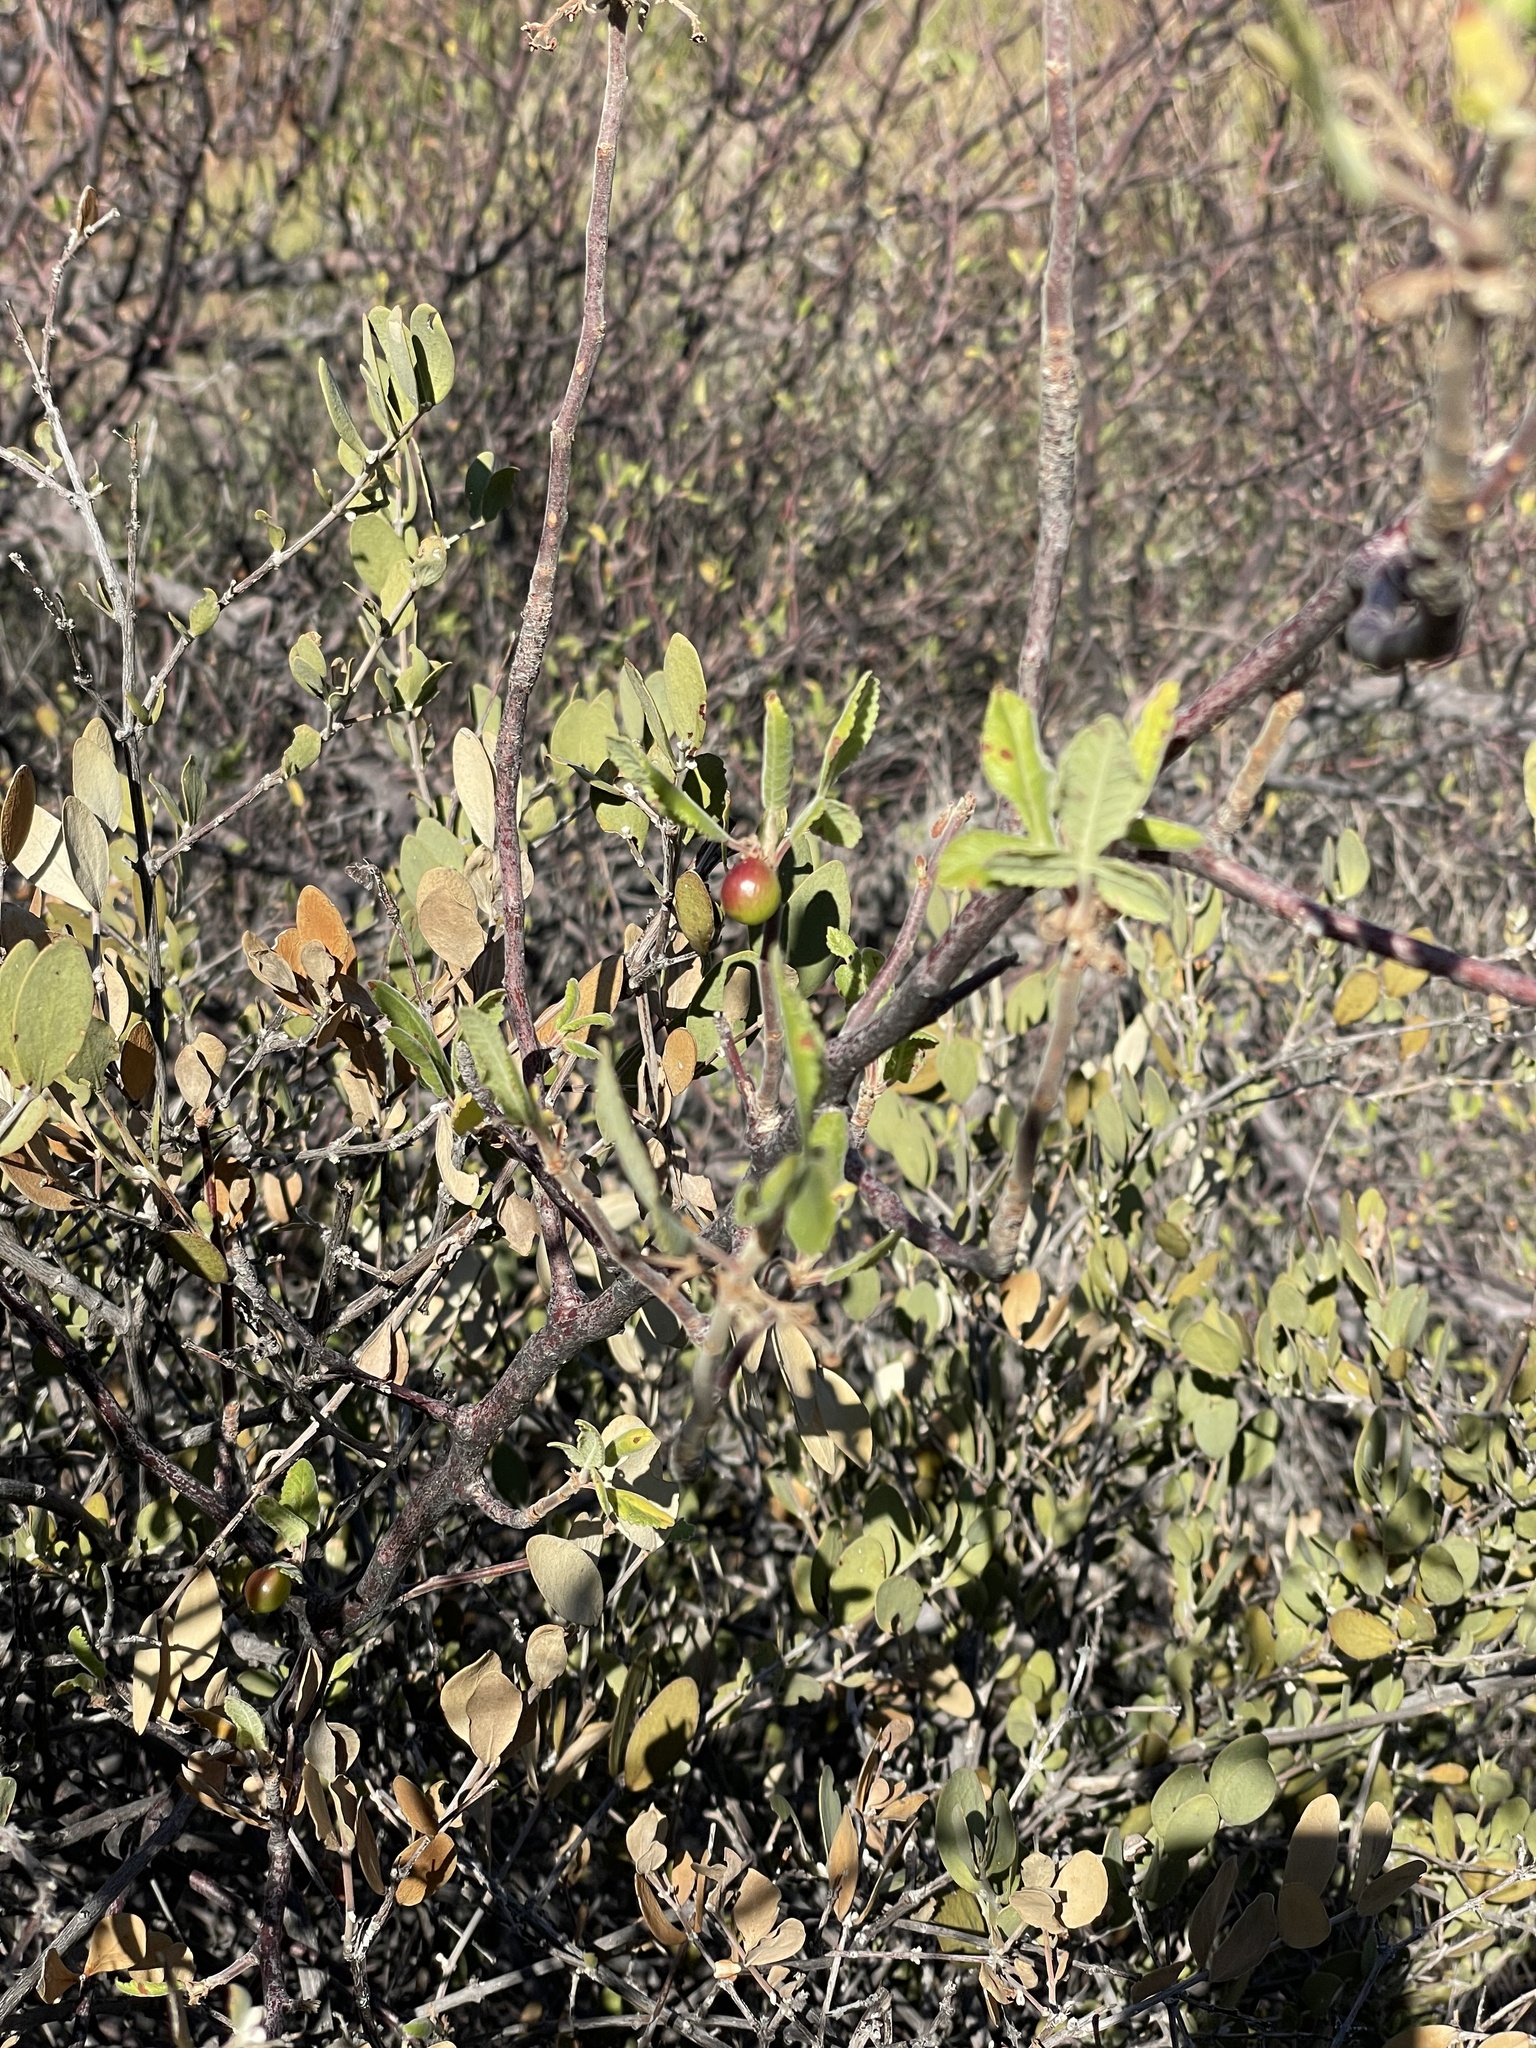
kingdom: Plantae
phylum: Tracheophyta
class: Magnoliopsida
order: Sapindales
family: Burseraceae
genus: Bursera
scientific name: Bursera hindsiana
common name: Red elephant tree
